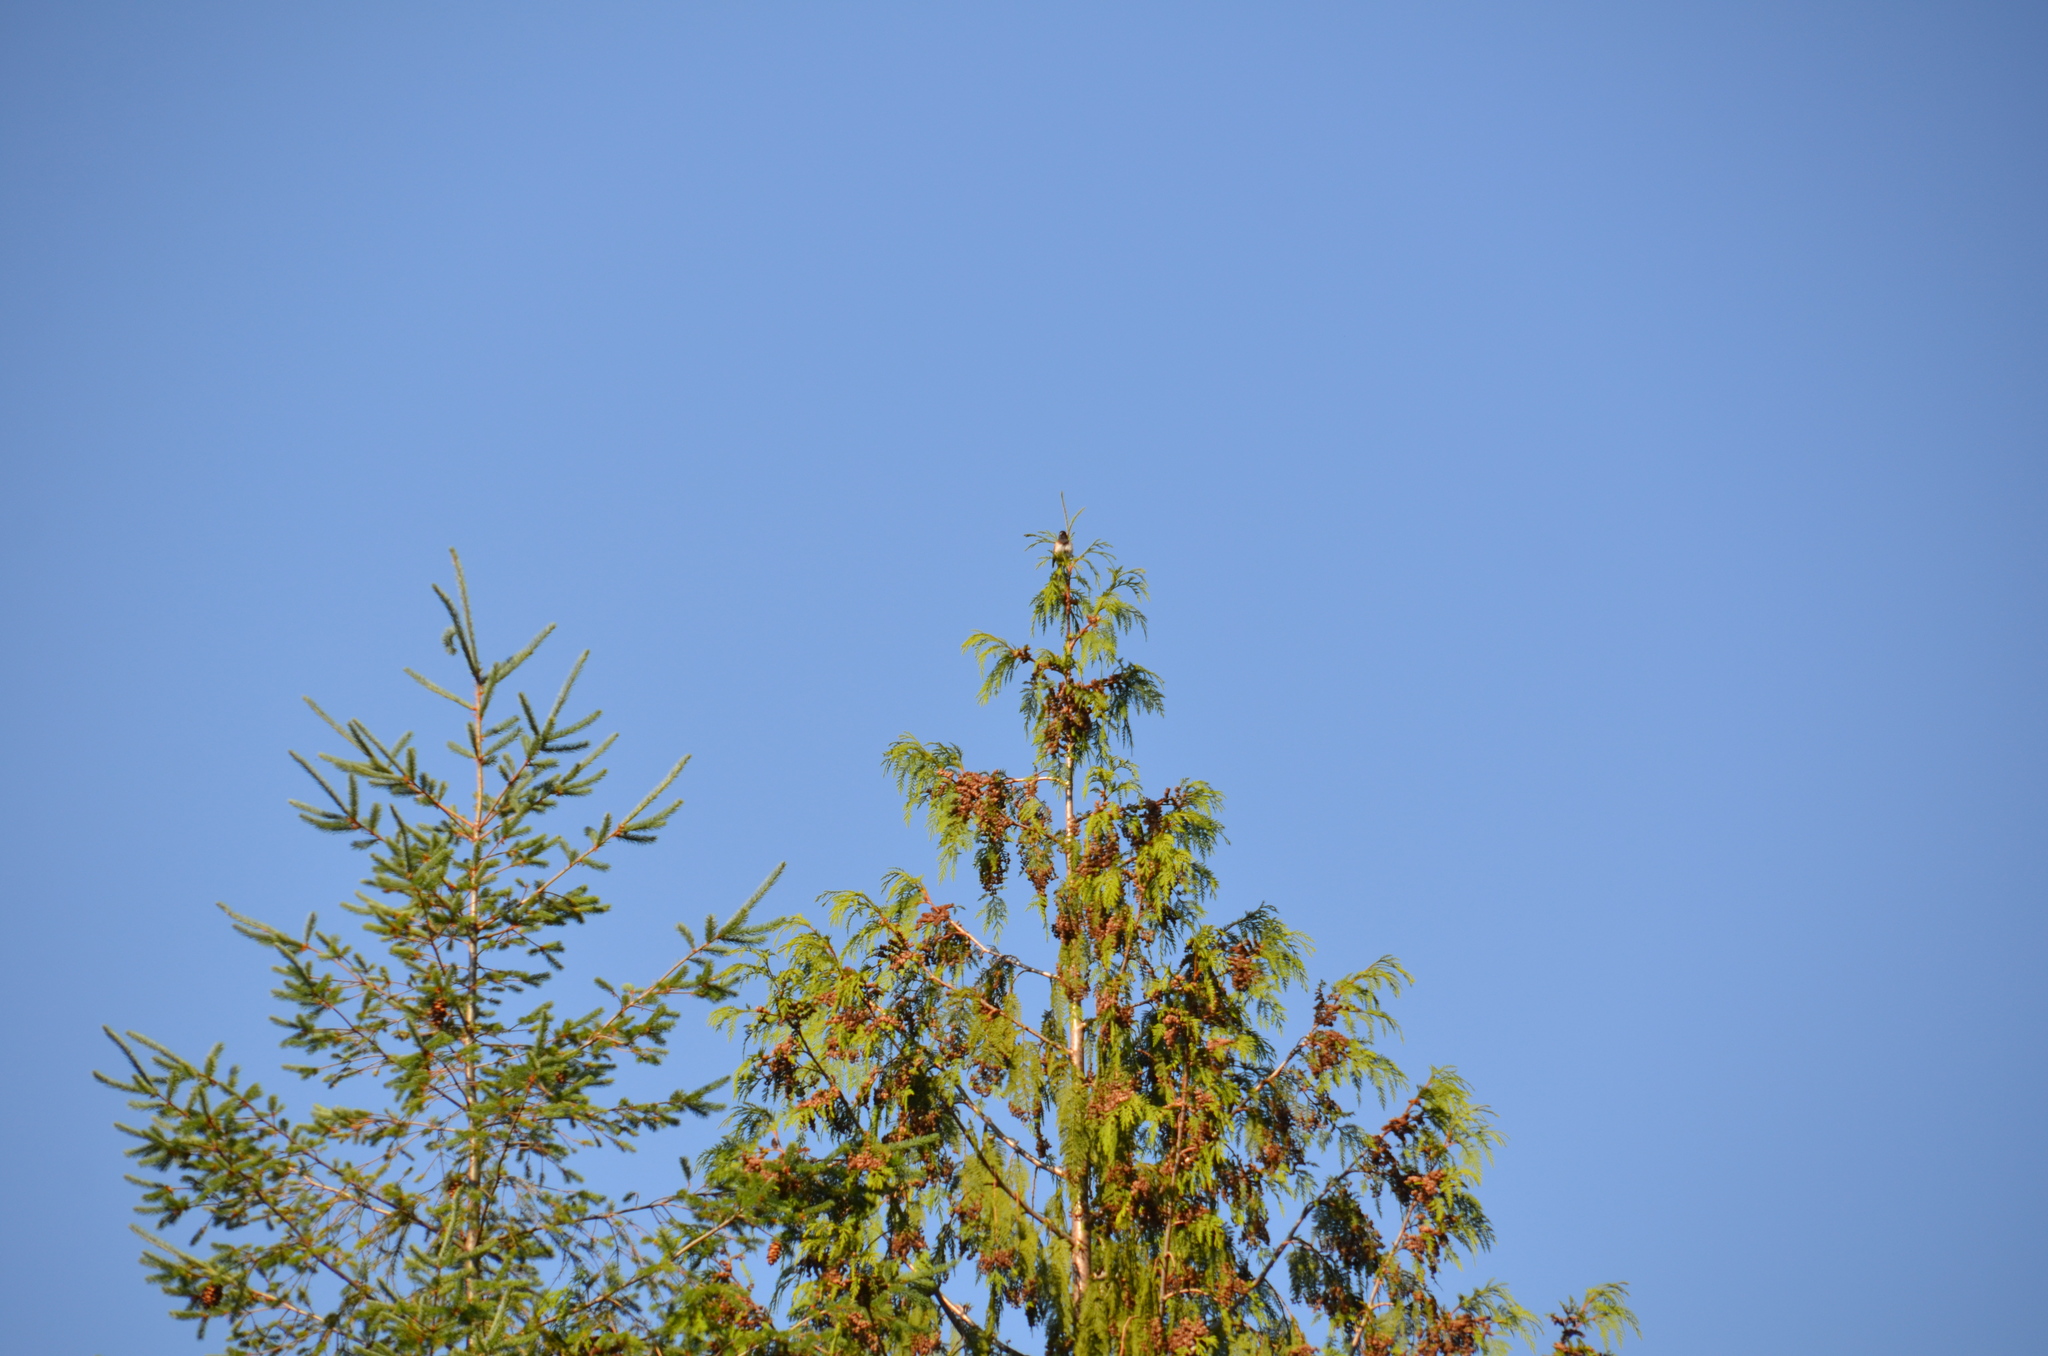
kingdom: Animalia
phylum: Chordata
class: Aves
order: Passeriformes
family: Passerellidae
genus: Junco
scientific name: Junco hyemalis
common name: Dark-eyed junco
